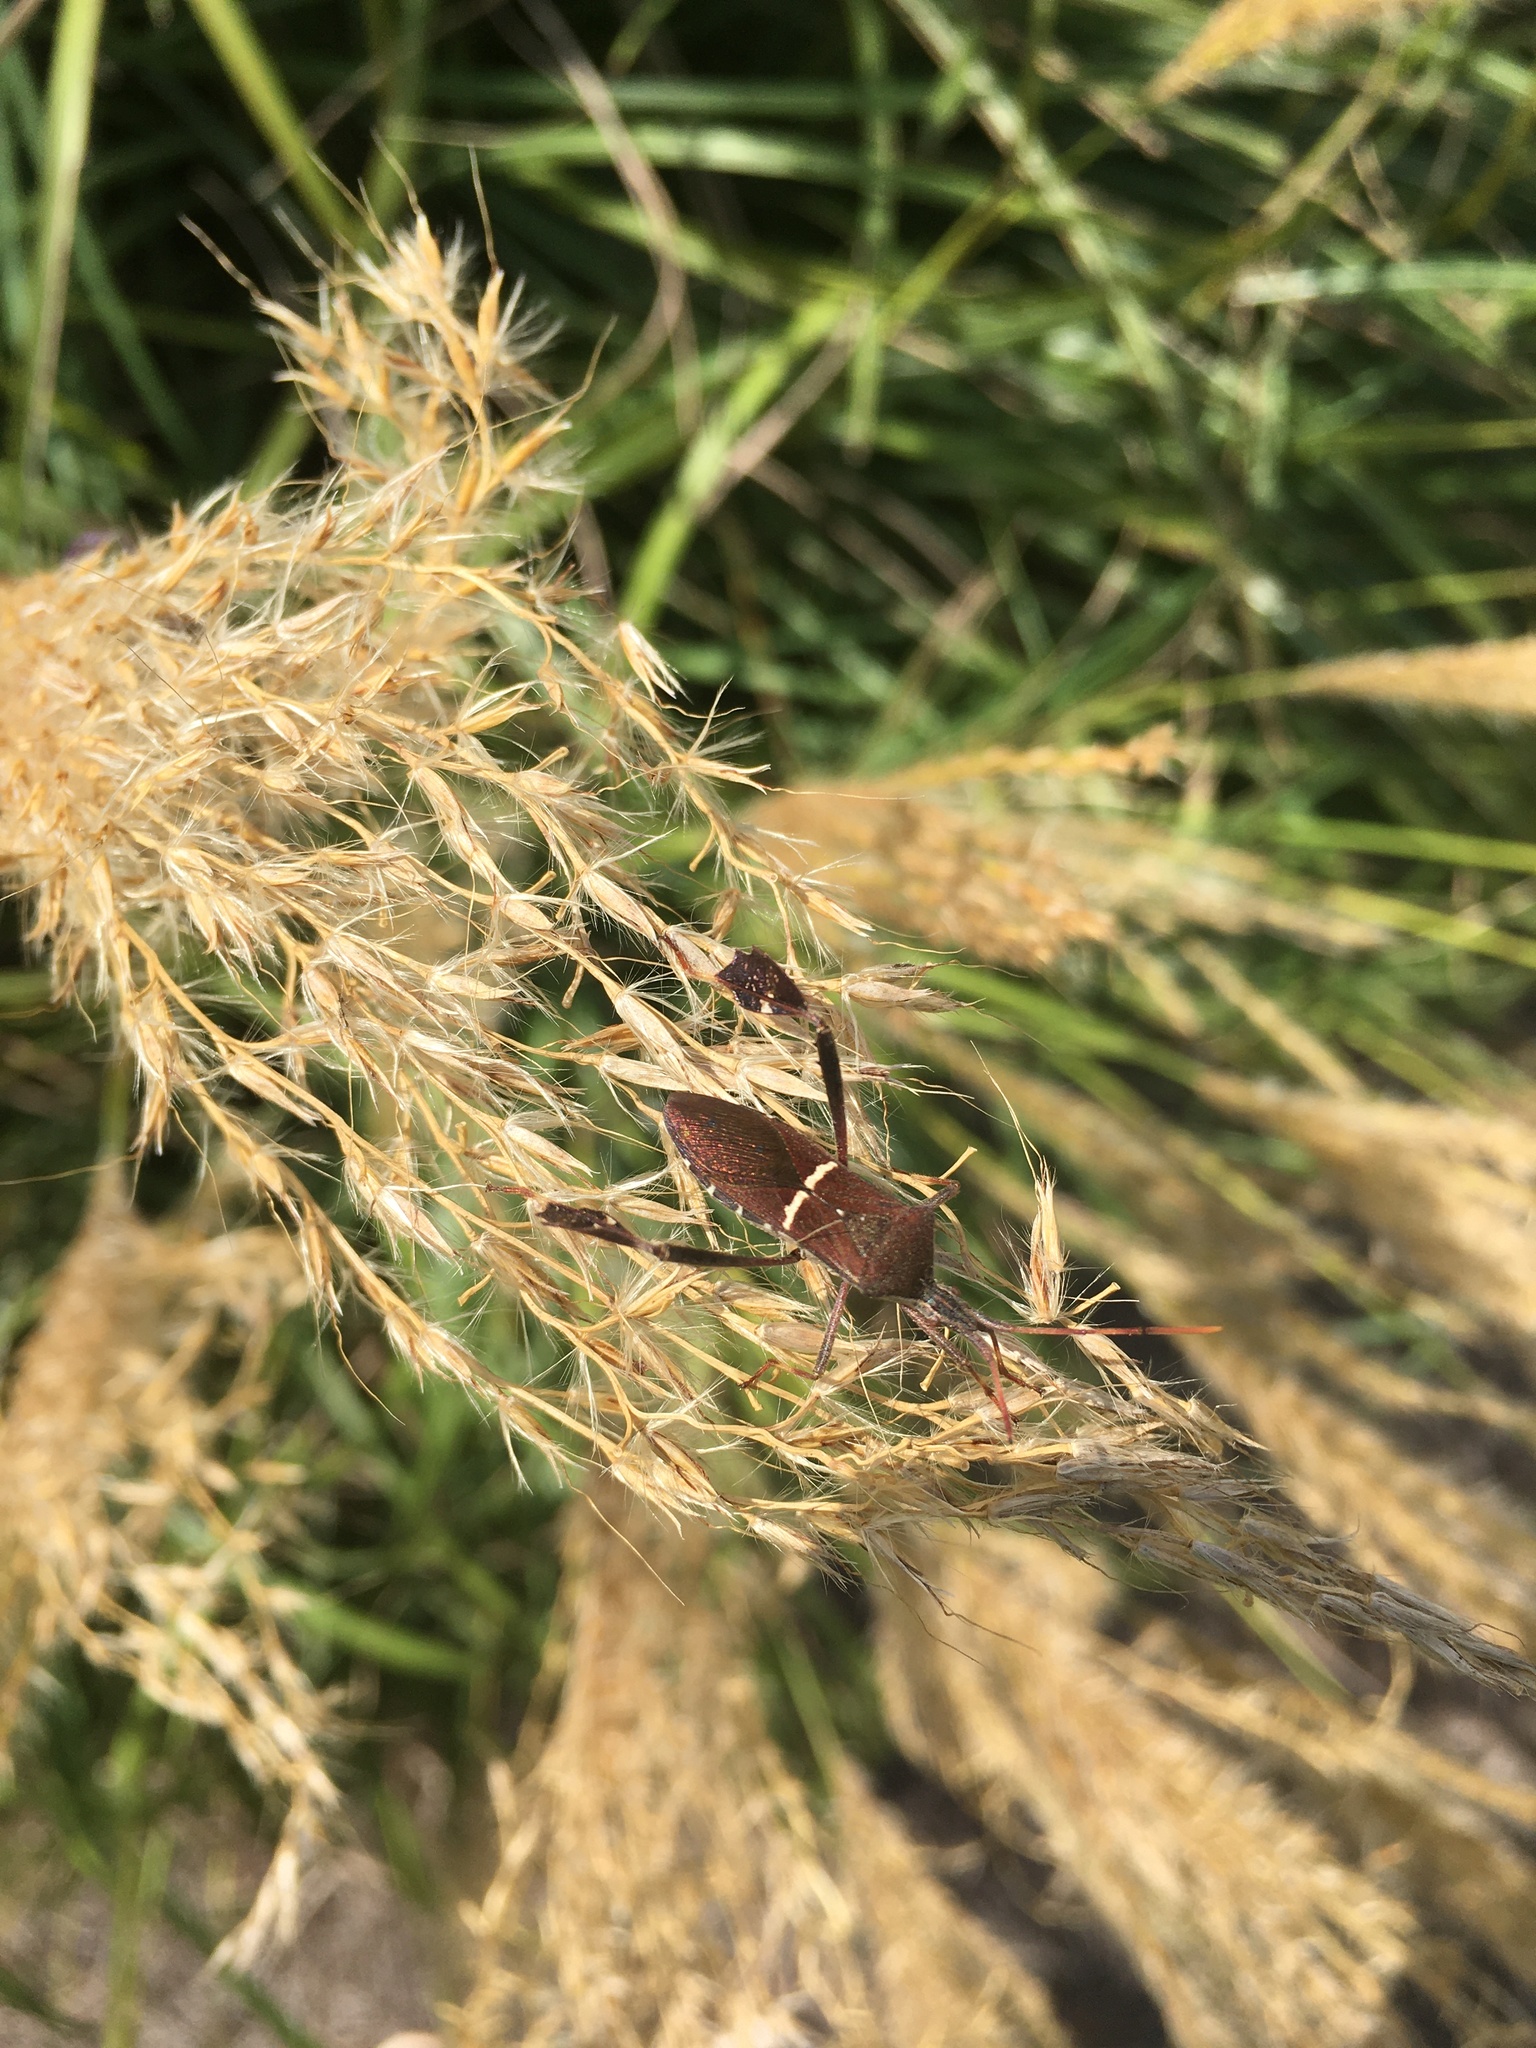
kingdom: Animalia
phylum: Arthropoda
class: Insecta
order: Hemiptera
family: Coreidae
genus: Leptoglossus
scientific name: Leptoglossus phyllopus
